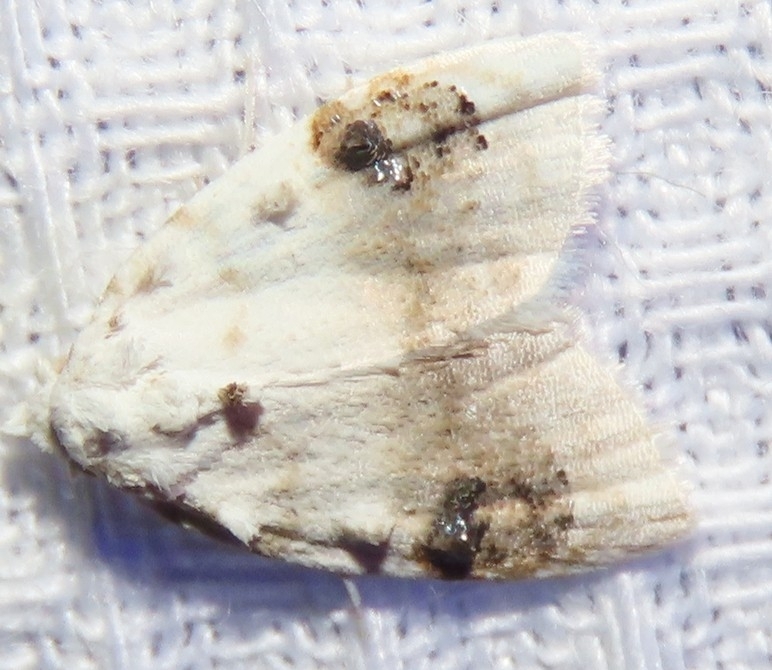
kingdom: Animalia
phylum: Arthropoda
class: Insecta
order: Lepidoptera
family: Nolidae
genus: Nola
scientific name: Nola cilicoides
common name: Blurry-patched nola moth
